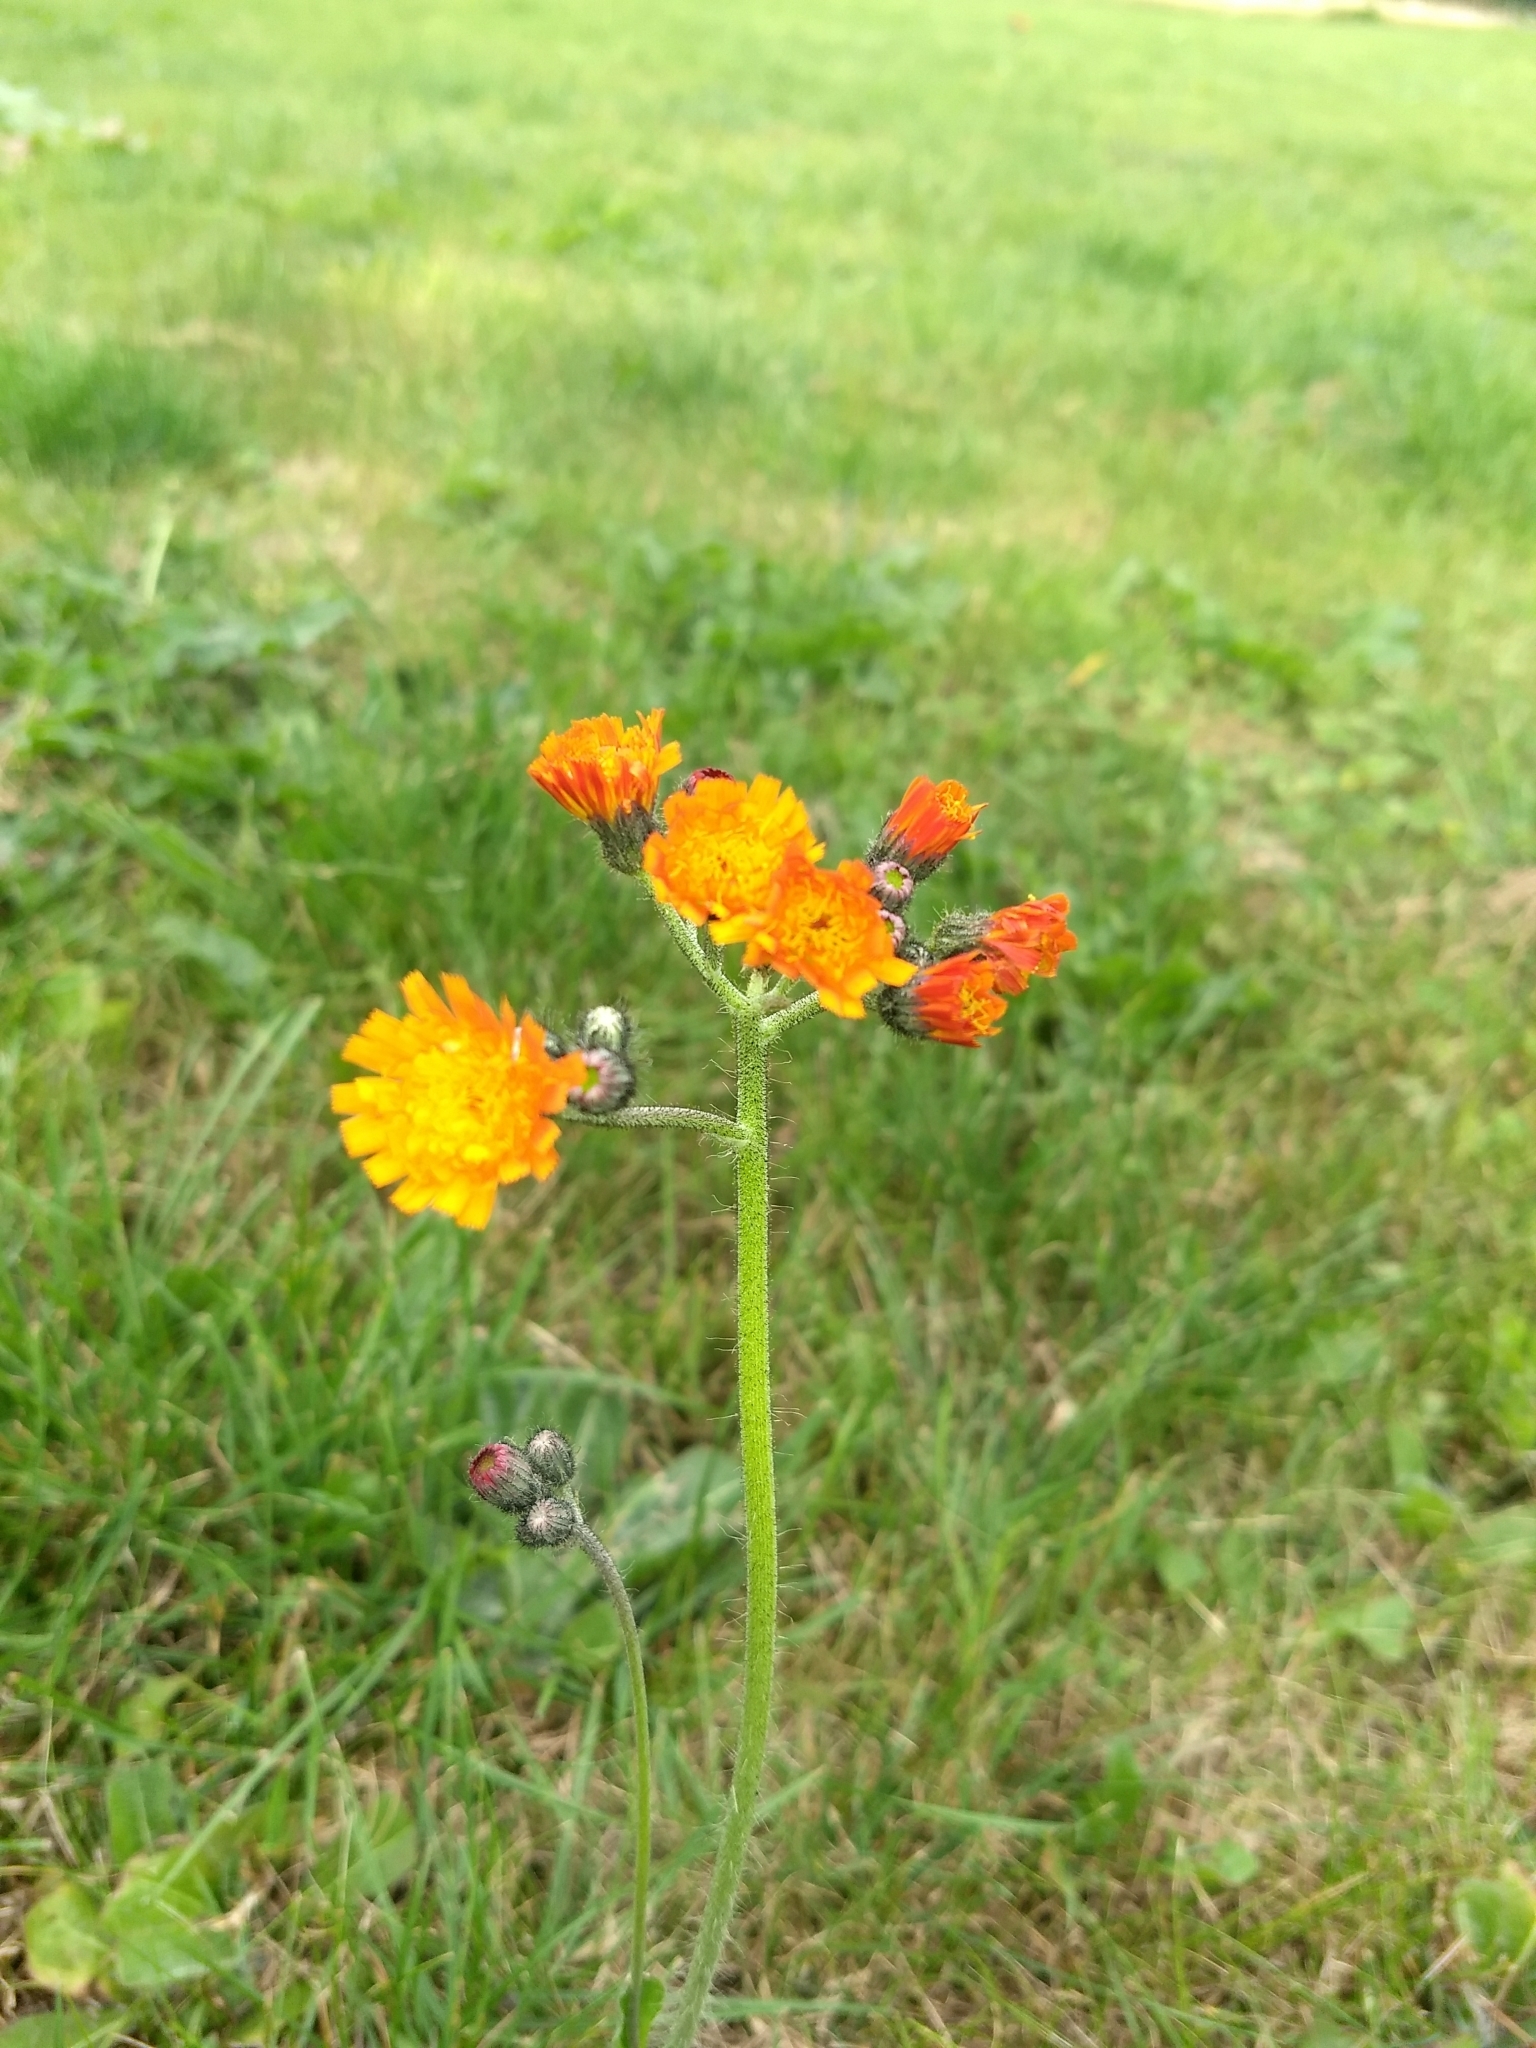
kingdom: Plantae
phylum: Tracheophyta
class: Magnoliopsida
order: Asterales
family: Asteraceae
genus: Pilosella
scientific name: Pilosella aurantiaca
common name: Fox-and-cubs
